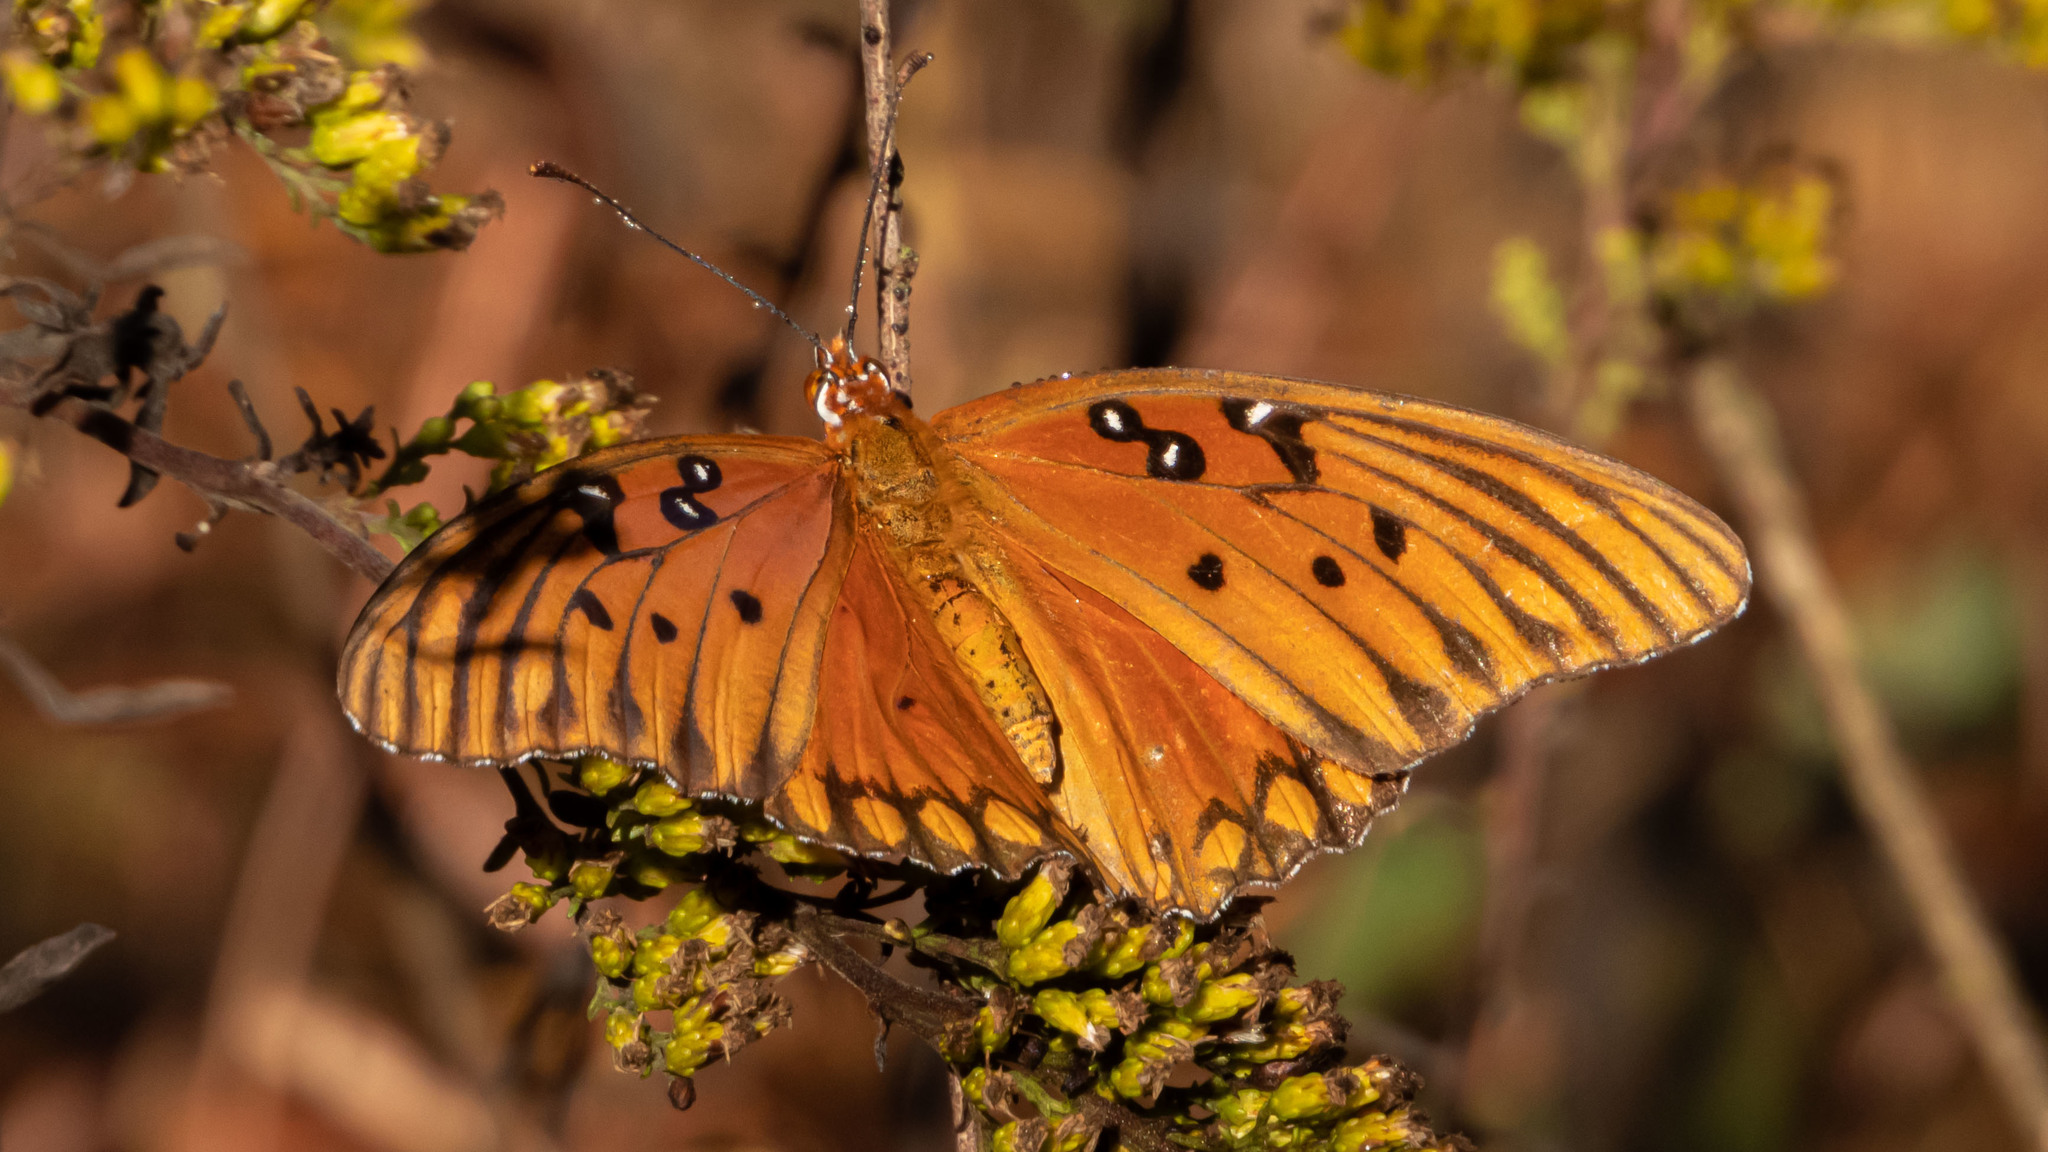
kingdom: Animalia
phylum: Arthropoda
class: Insecta
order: Lepidoptera
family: Nymphalidae
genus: Dione
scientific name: Dione vanillae
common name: Gulf fritillary
